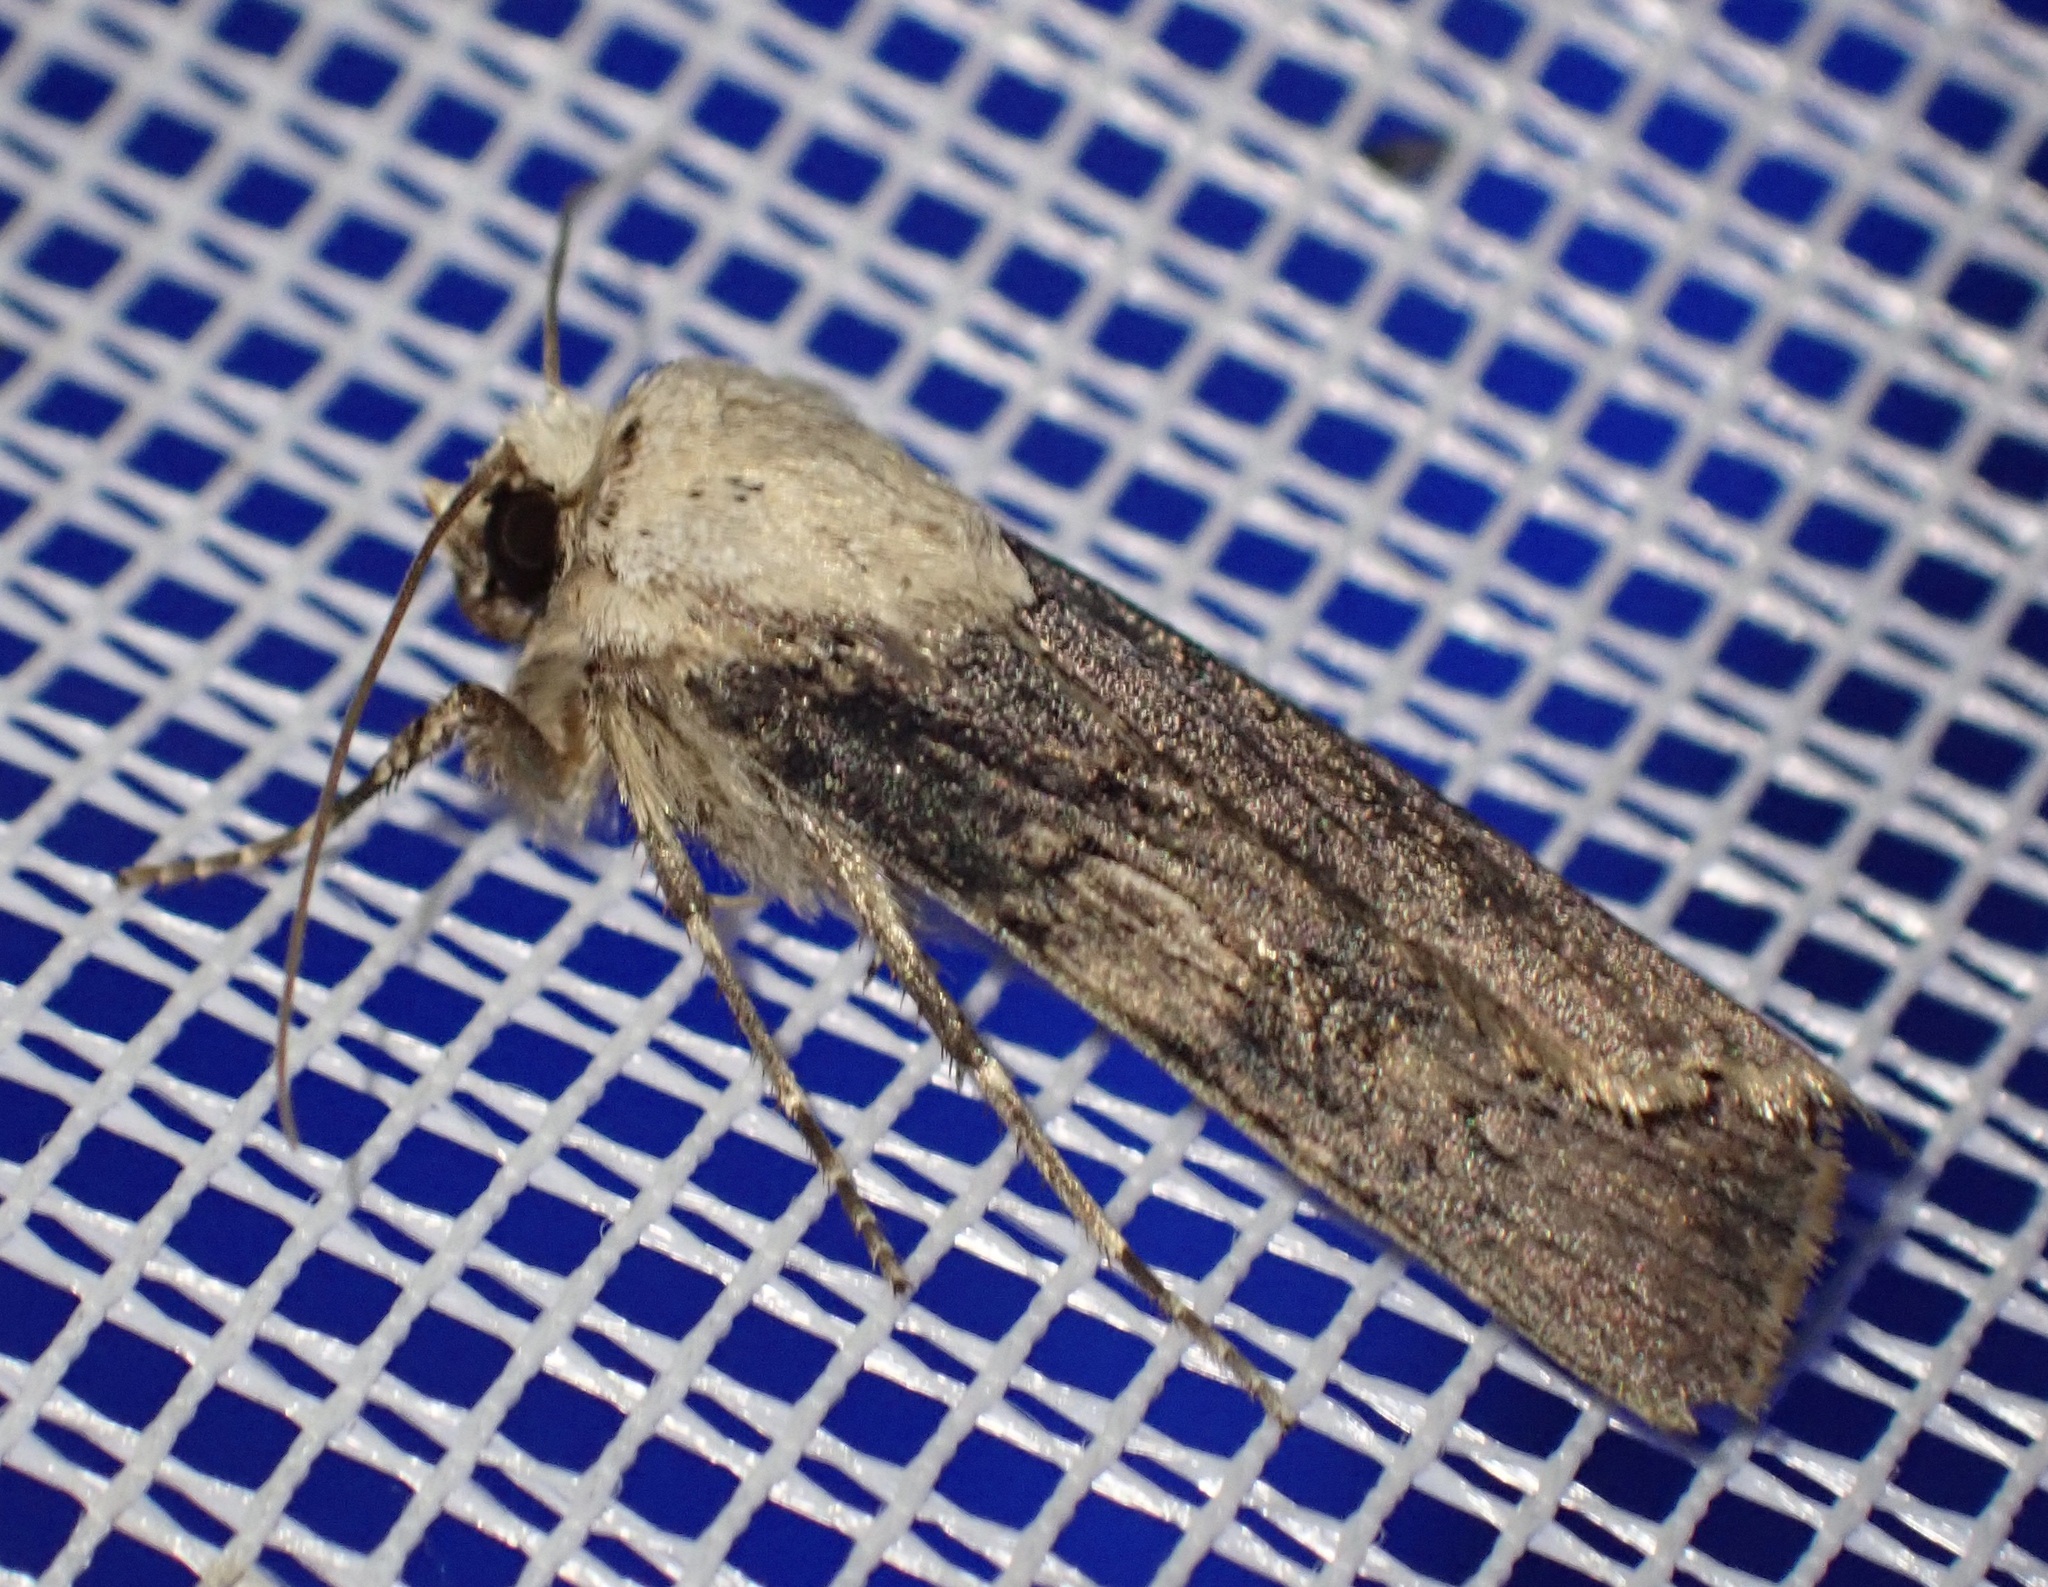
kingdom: Animalia
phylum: Arthropoda
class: Insecta
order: Lepidoptera
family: Noctuidae
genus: Agrotis
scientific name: Agrotis puta
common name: Shuttle-shaped dart
